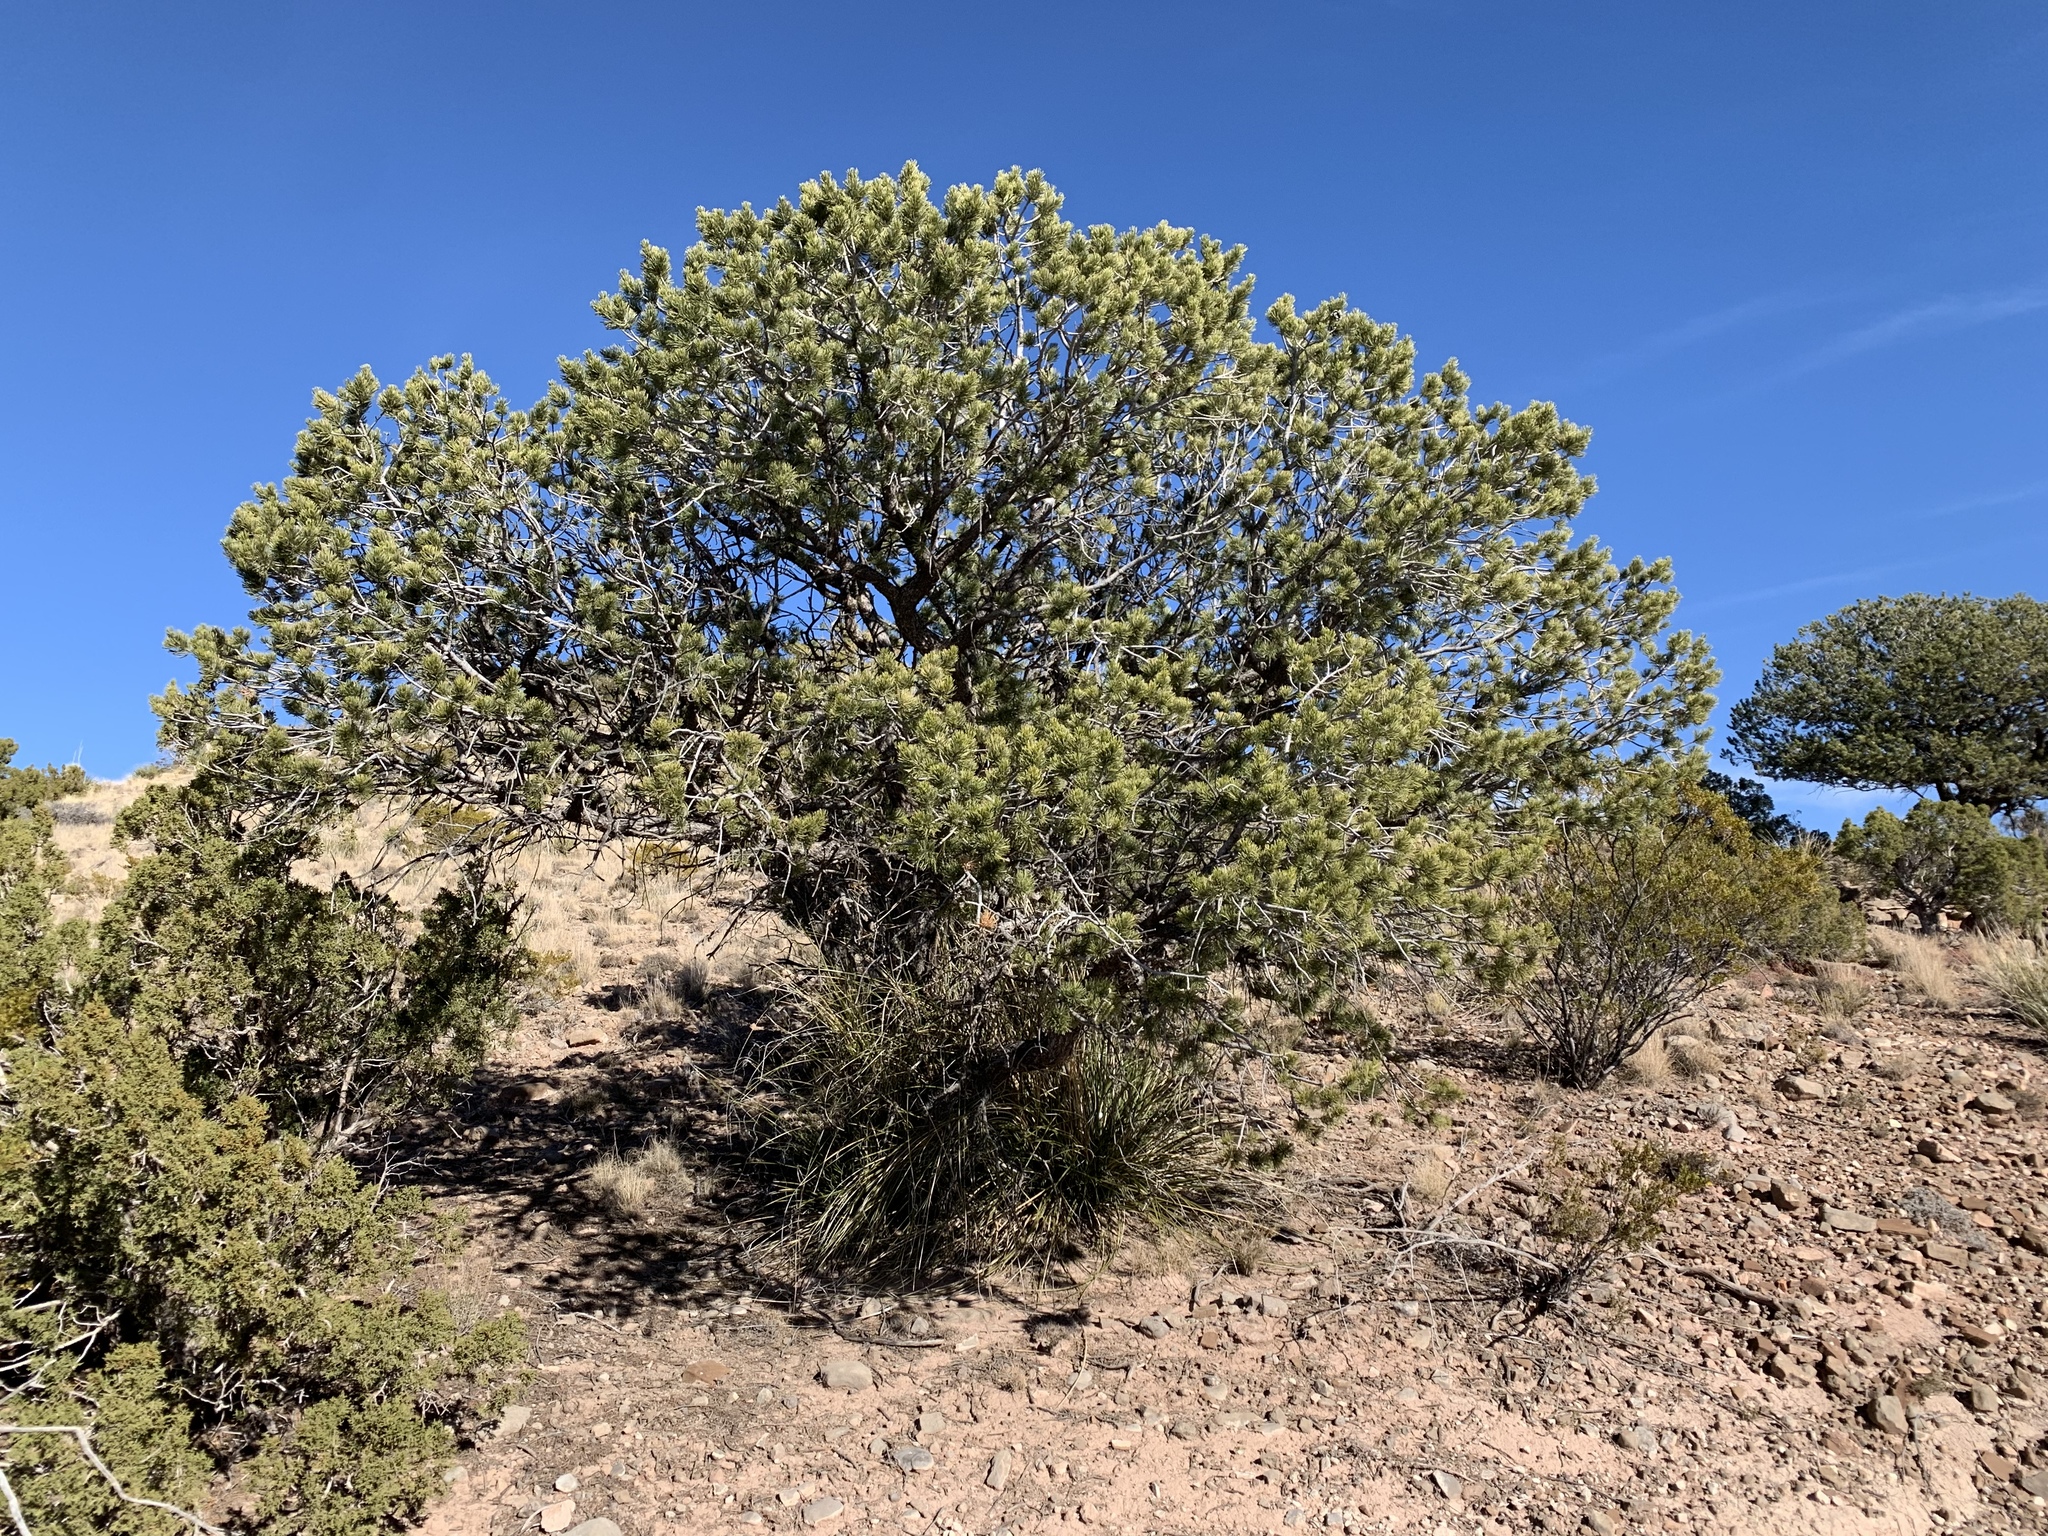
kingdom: Plantae
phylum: Tracheophyta
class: Pinopsida
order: Pinales
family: Pinaceae
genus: Pinus
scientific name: Pinus edulis
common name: Colorado pinyon
